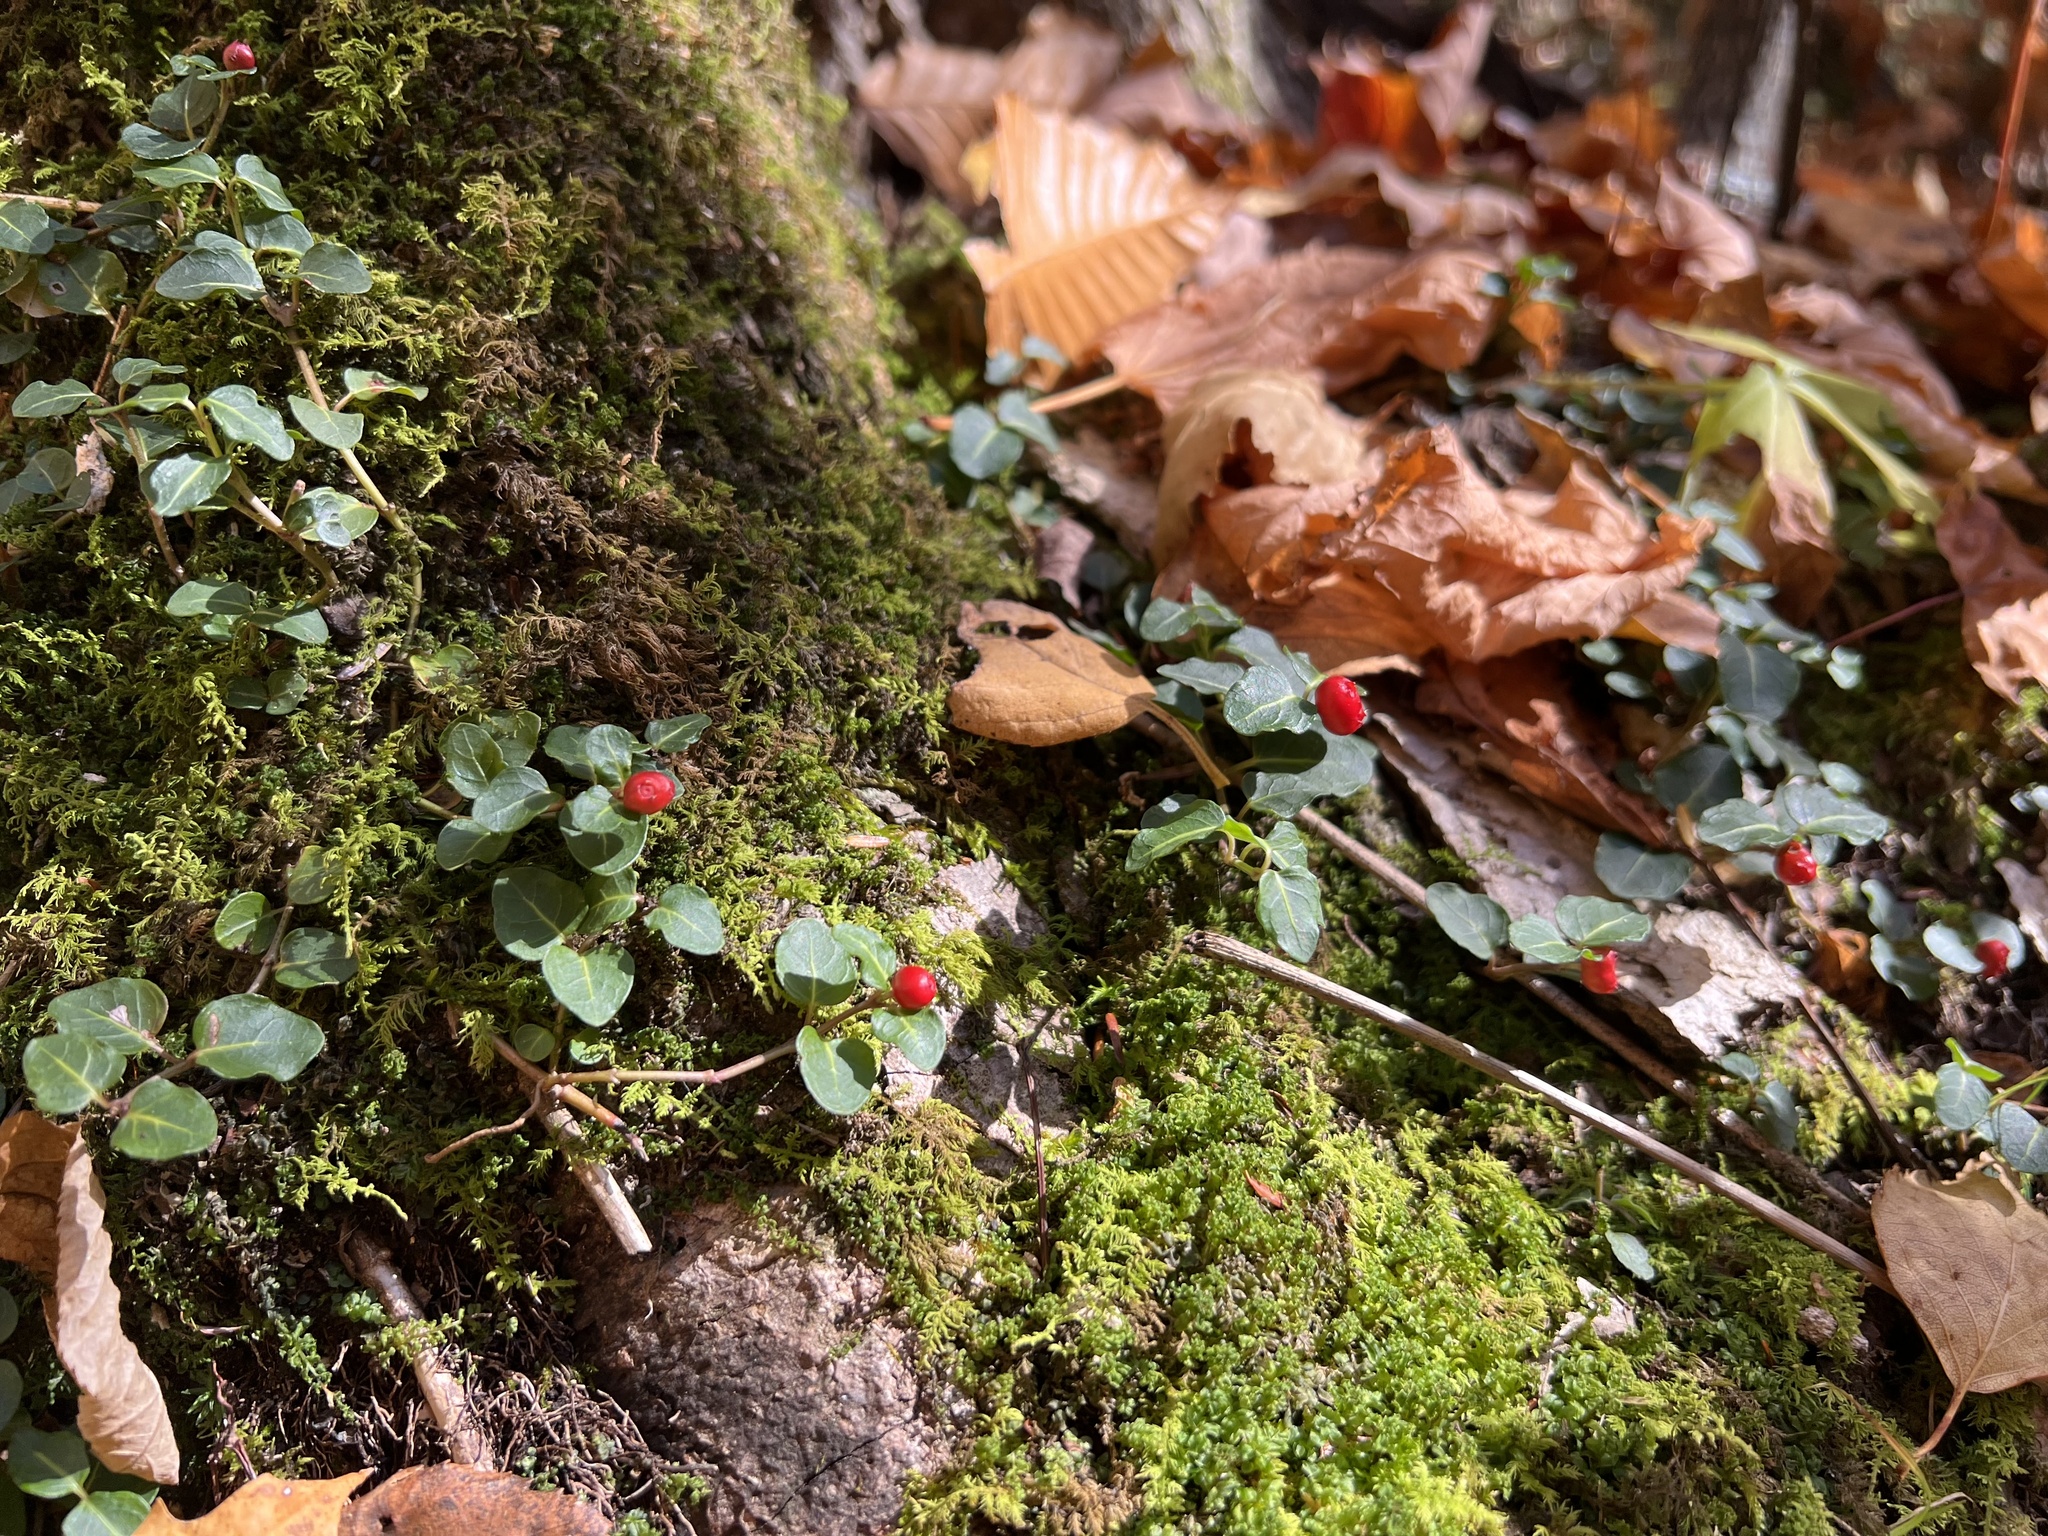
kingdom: Plantae
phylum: Tracheophyta
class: Magnoliopsida
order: Gentianales
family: Rubiaceae
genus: Mitchella
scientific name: Mitchella repens
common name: Partridge-berry
